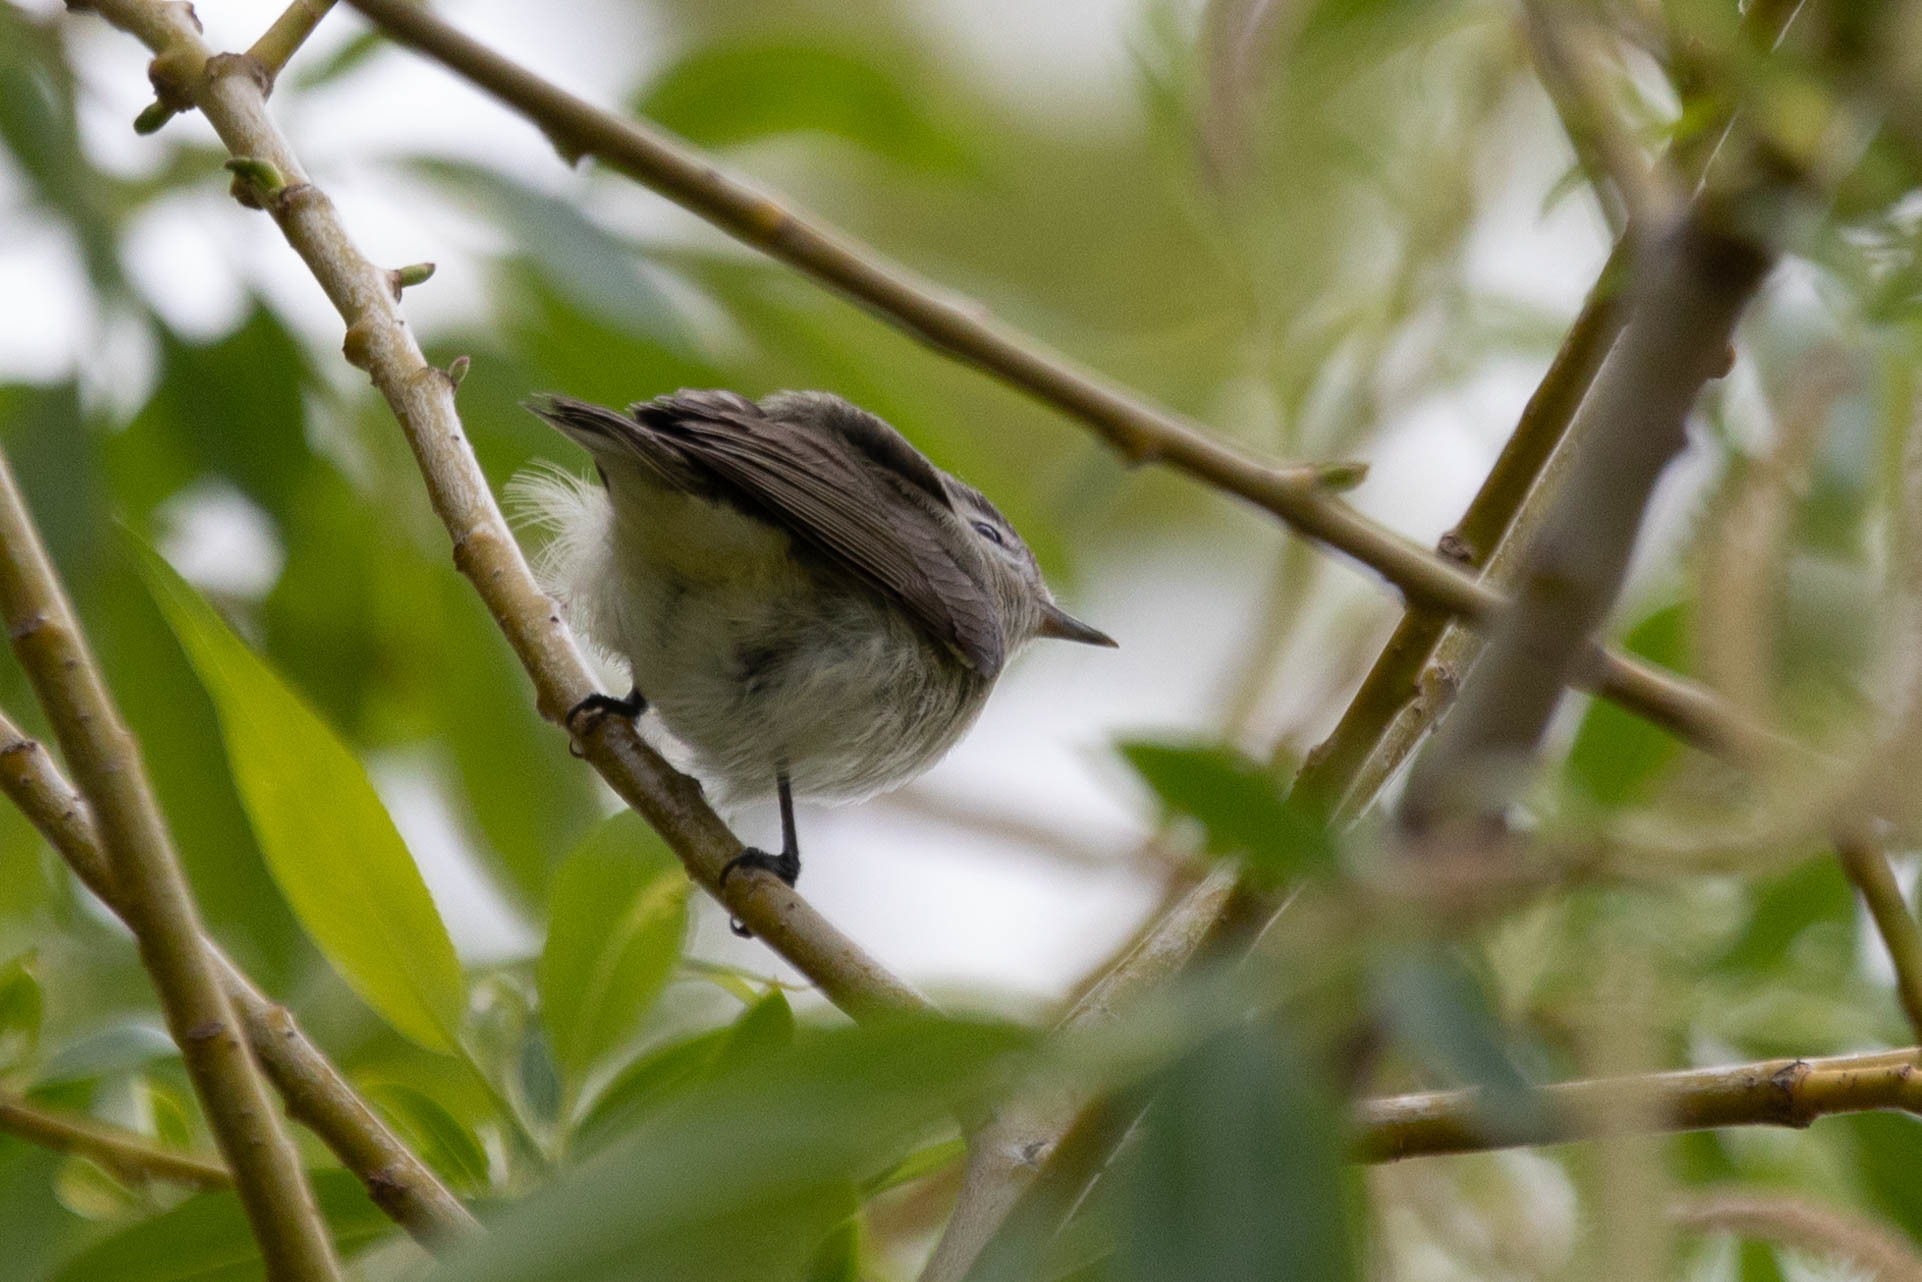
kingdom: Animalia
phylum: Chordata
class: Aves
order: Passeriformes
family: Vireonidae
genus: Vireo
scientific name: Vireo gilvus
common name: Warbling vireo
